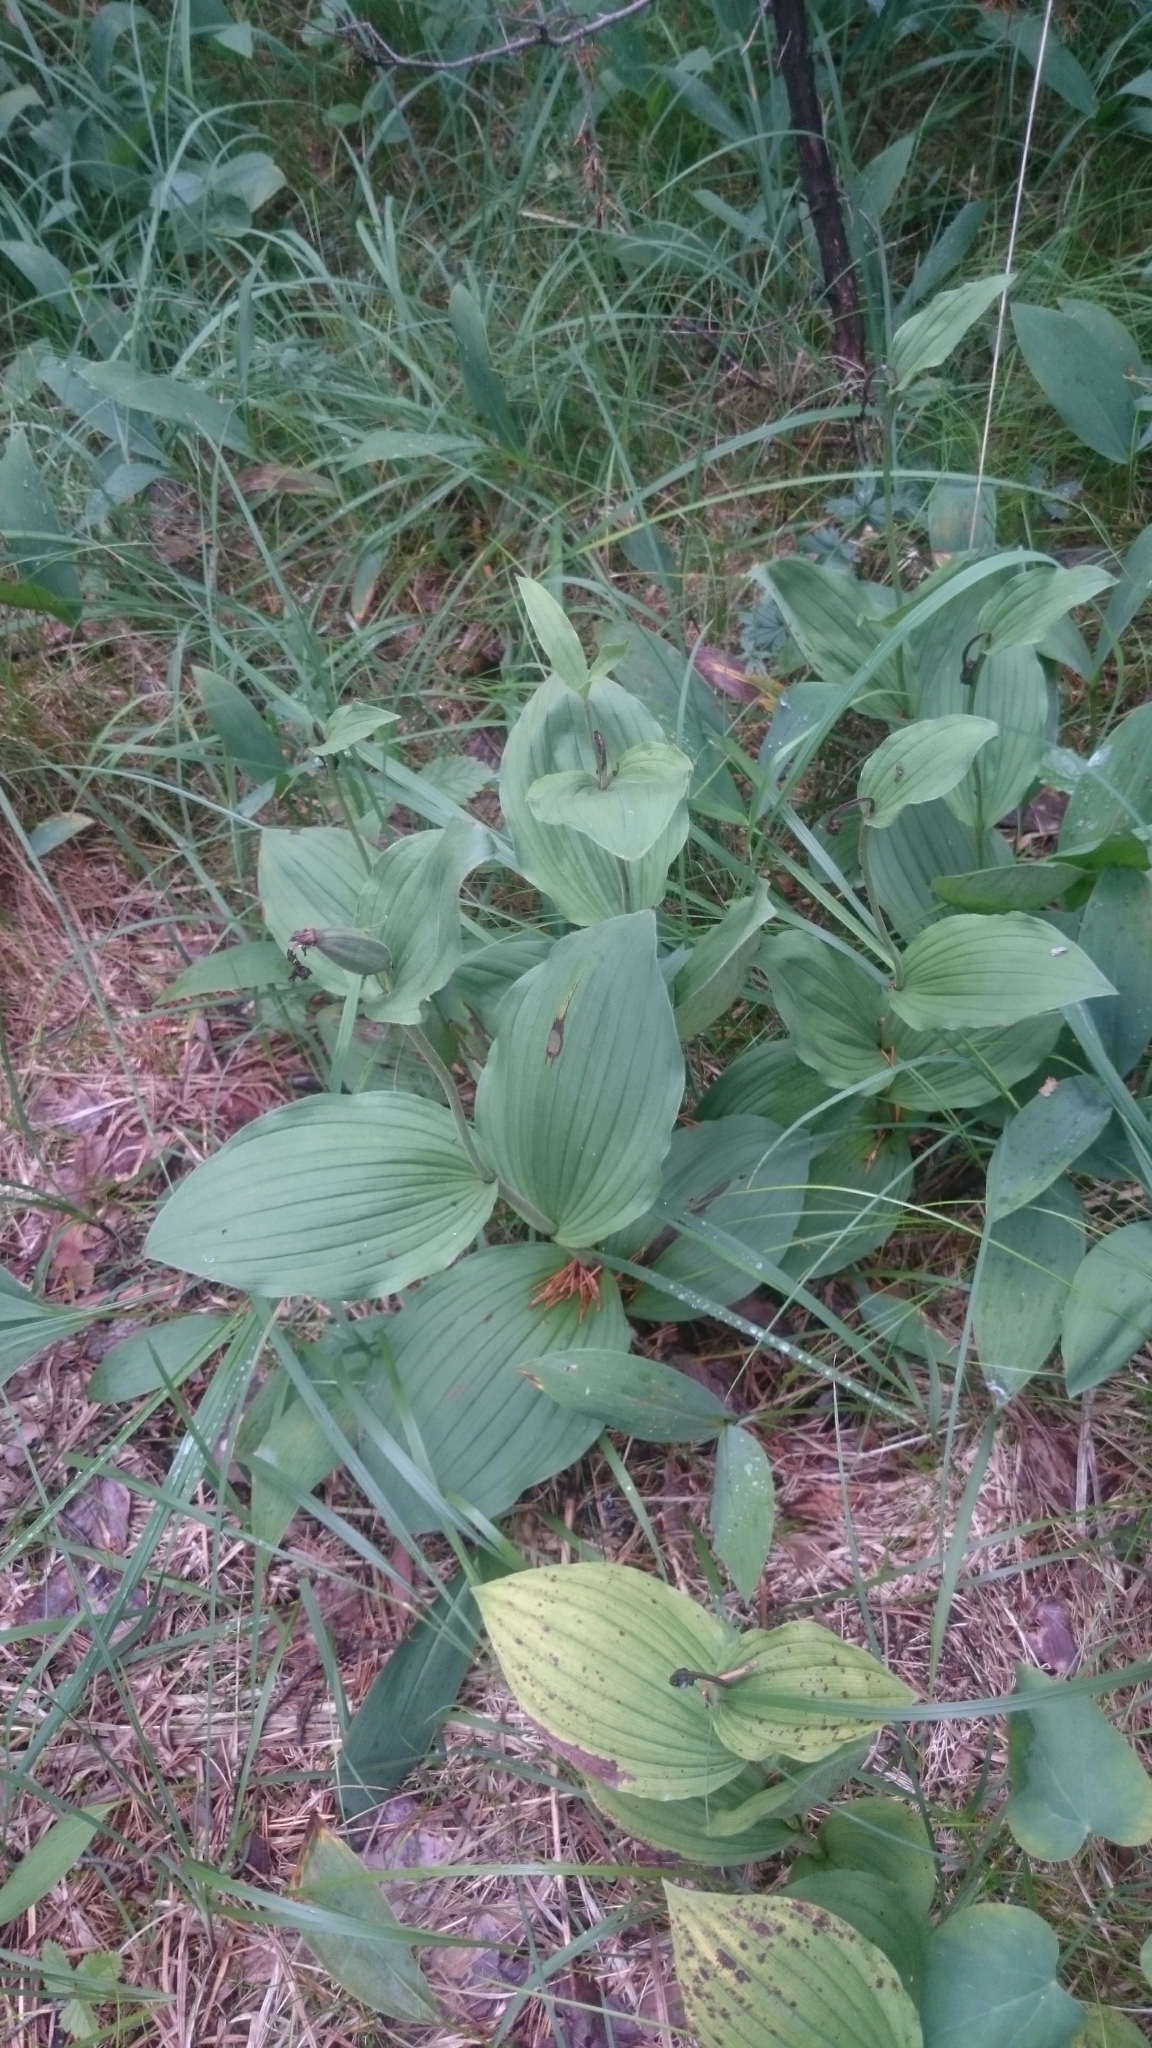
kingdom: Plantae
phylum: Tracheophyta
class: Liliopsida
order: Asparagales
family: Orchidaceae
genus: Cypripedium
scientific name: Cypripedium calceolus
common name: Lady's-slipper
